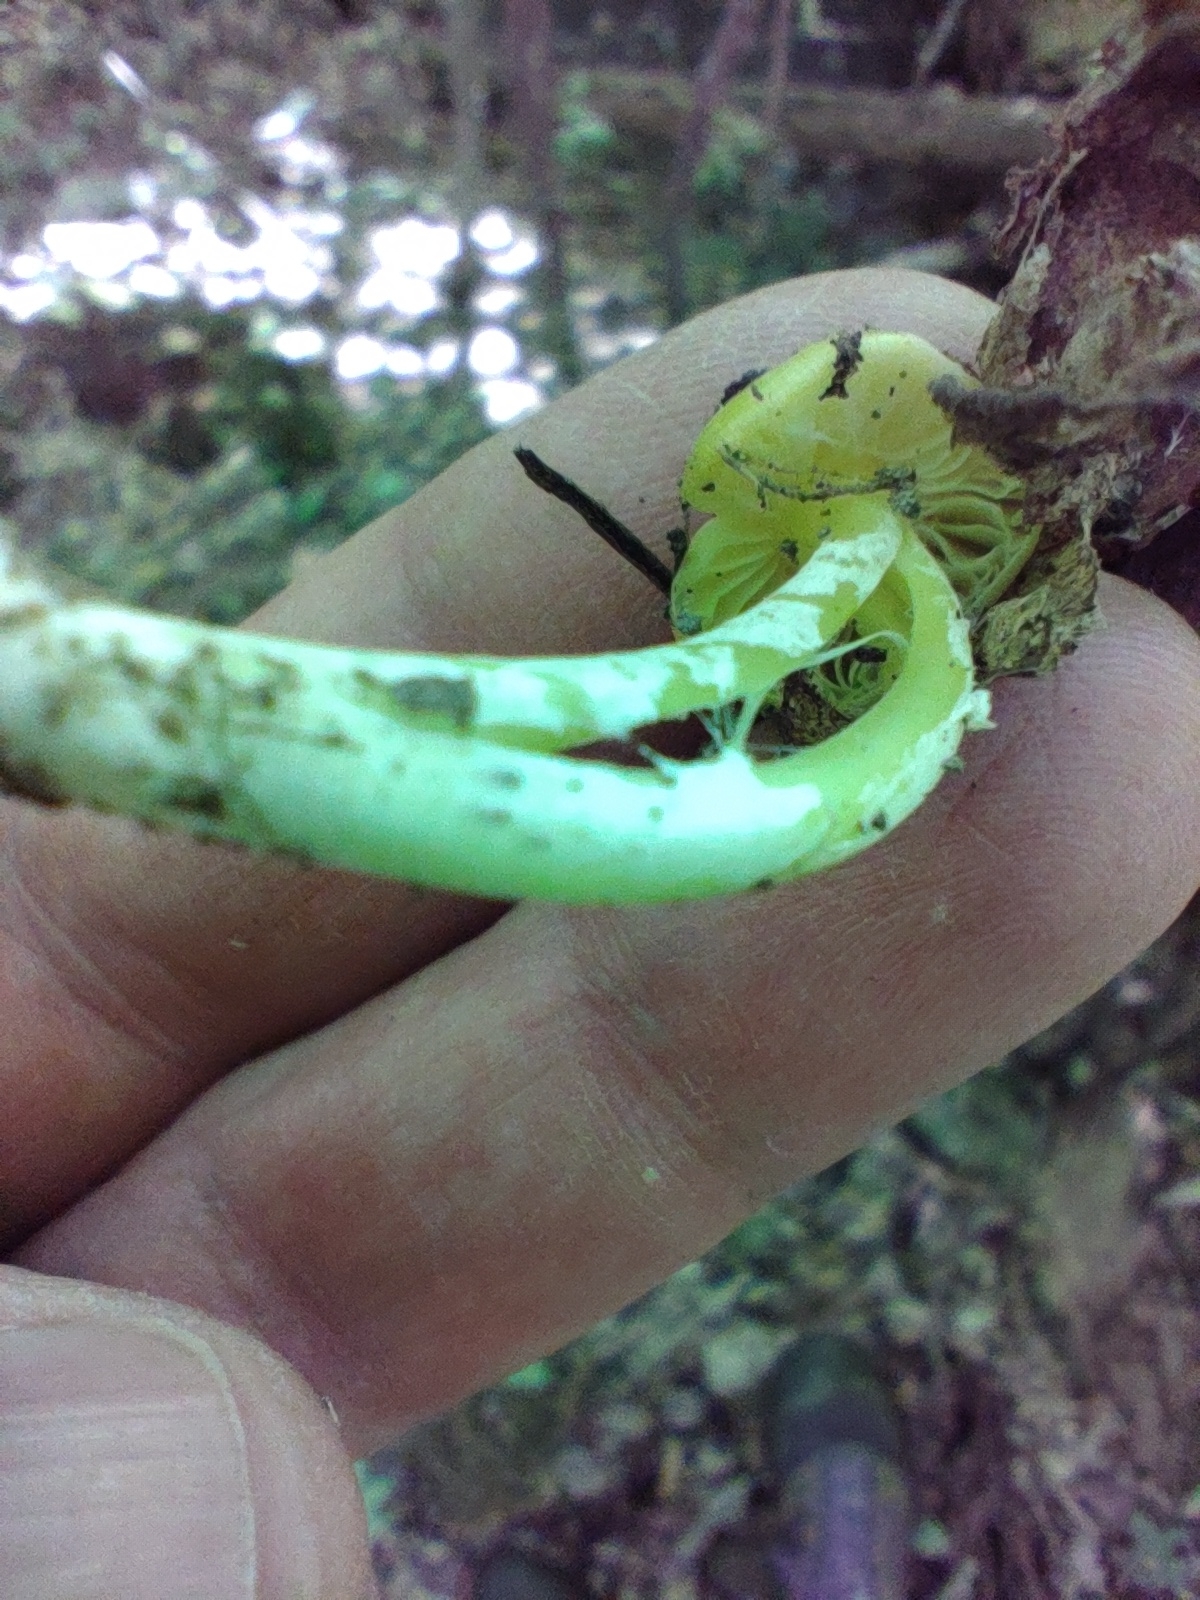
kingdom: Fungi
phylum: Basidiomycota
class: Agaricomycetes
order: Agaricales
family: Hygrophoraceae
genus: Hygrocybe
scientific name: Hygrocybe chlorophana
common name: Golden waxcap
